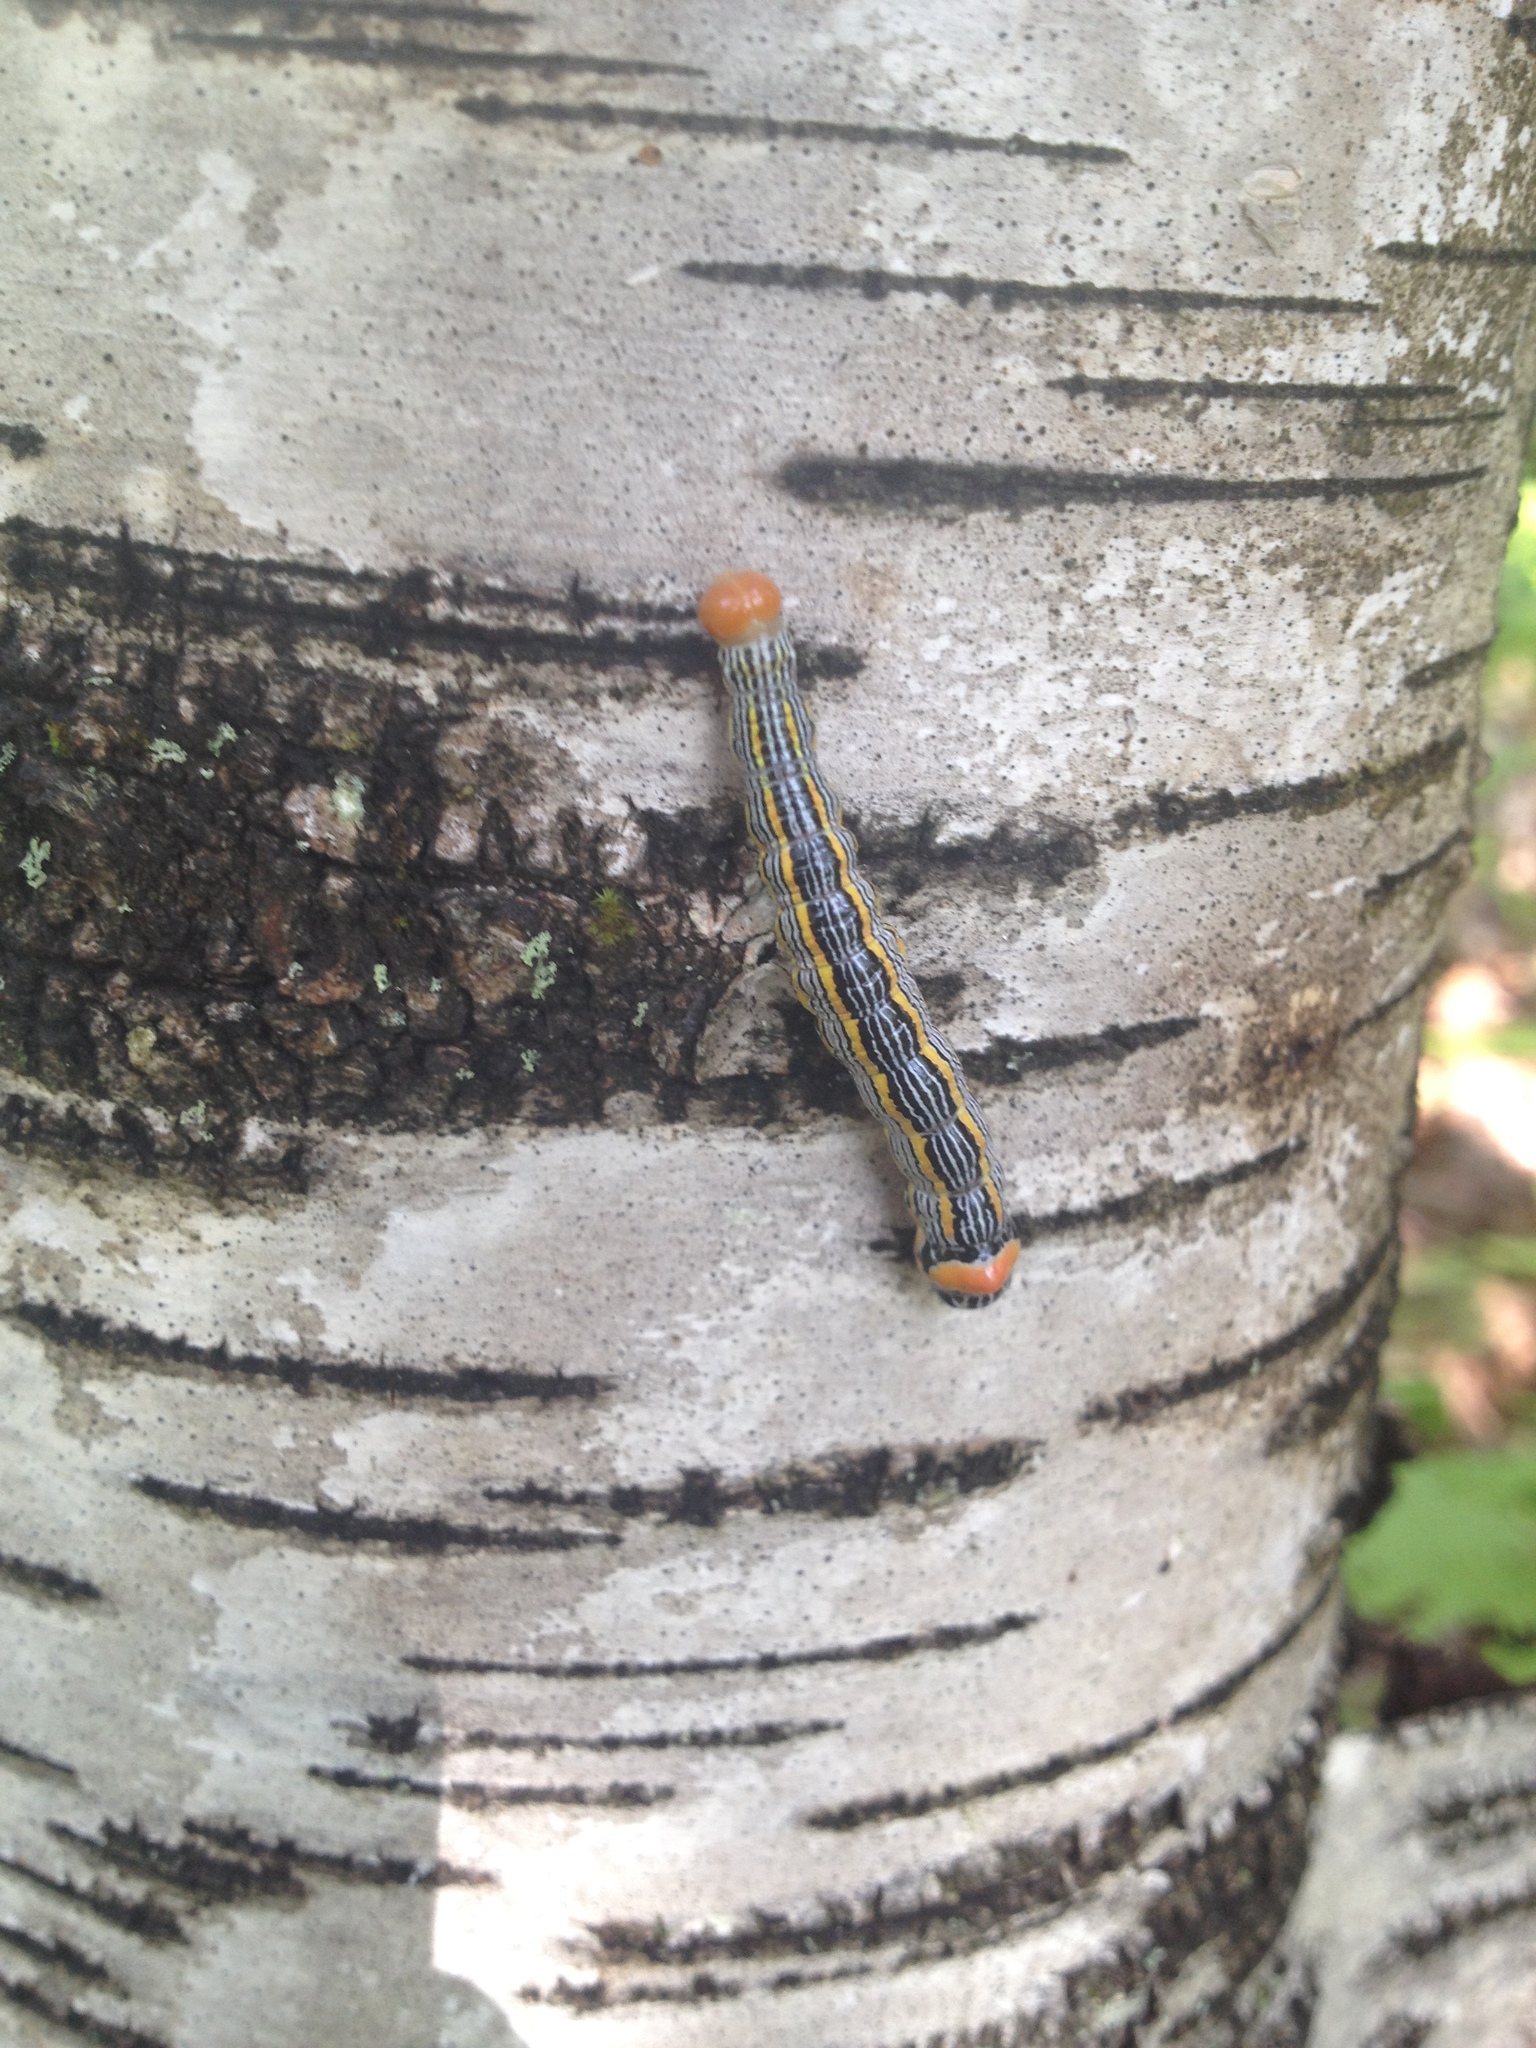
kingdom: Animalia
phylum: Arthropoda
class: Insecta
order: Lepidoptera
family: Notodontidae
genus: Symmerista
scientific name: Symmerista leucitys
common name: Orange-humped mapleworm
